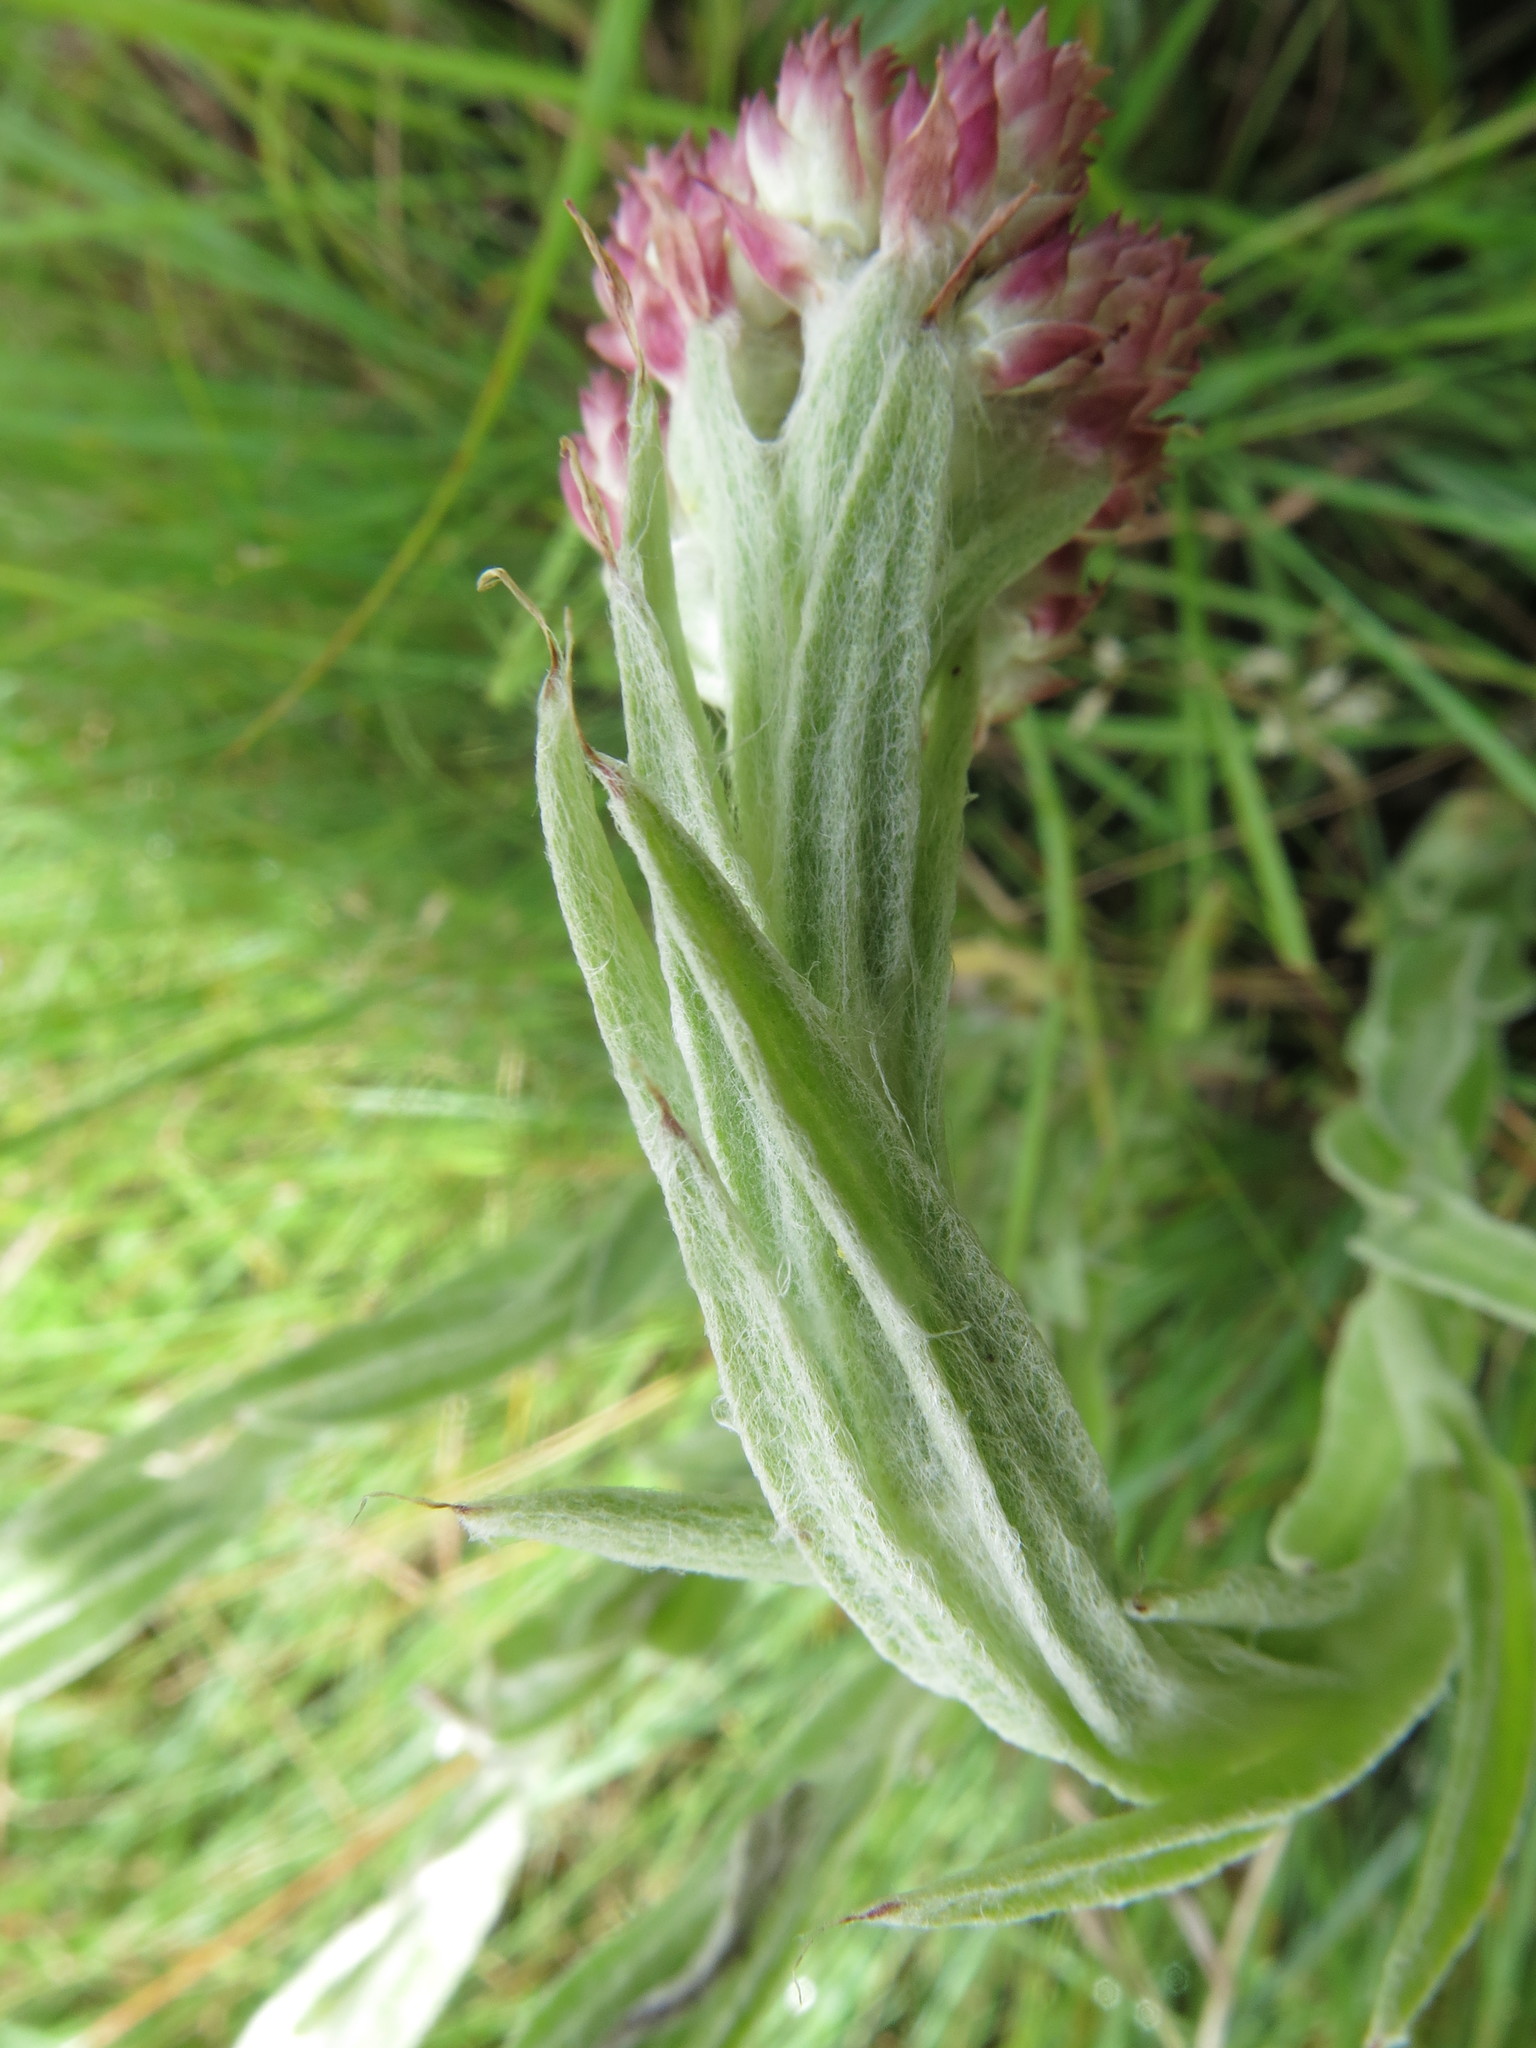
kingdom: Plantae
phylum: Tracheophyta
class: Magnoliopsida
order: Asterales
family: Asteraceae
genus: Helichrysum
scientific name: Helichrysum appendiculatum
